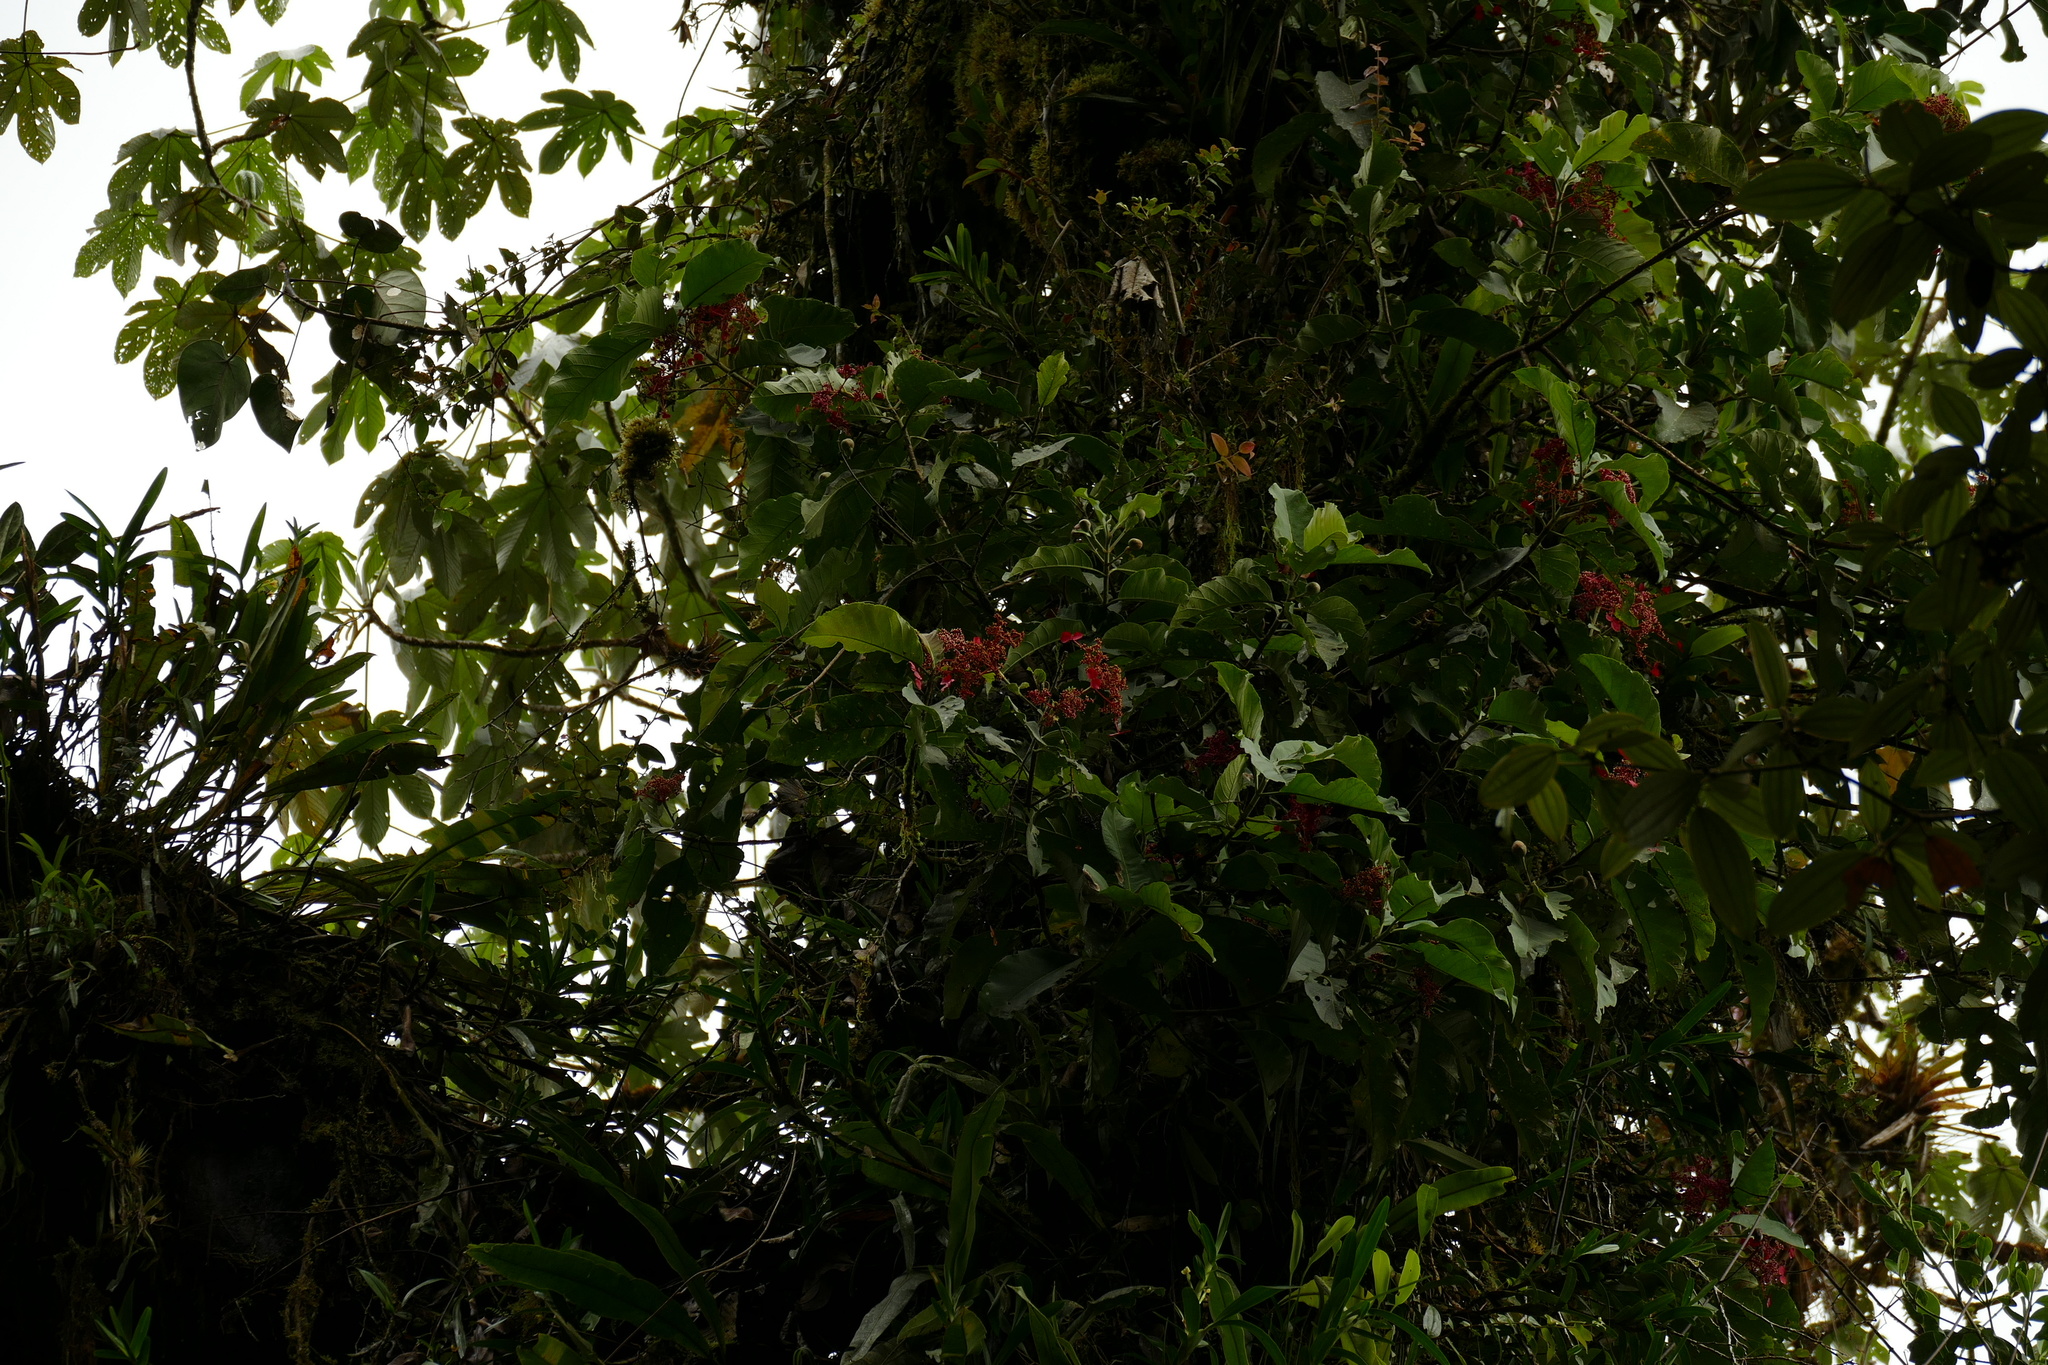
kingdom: Plantae
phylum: Tracheophyta
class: Magnoliopsida
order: Cornales
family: Hydrangeaceae
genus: Hydrangea
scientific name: Hydrangea peruviana
